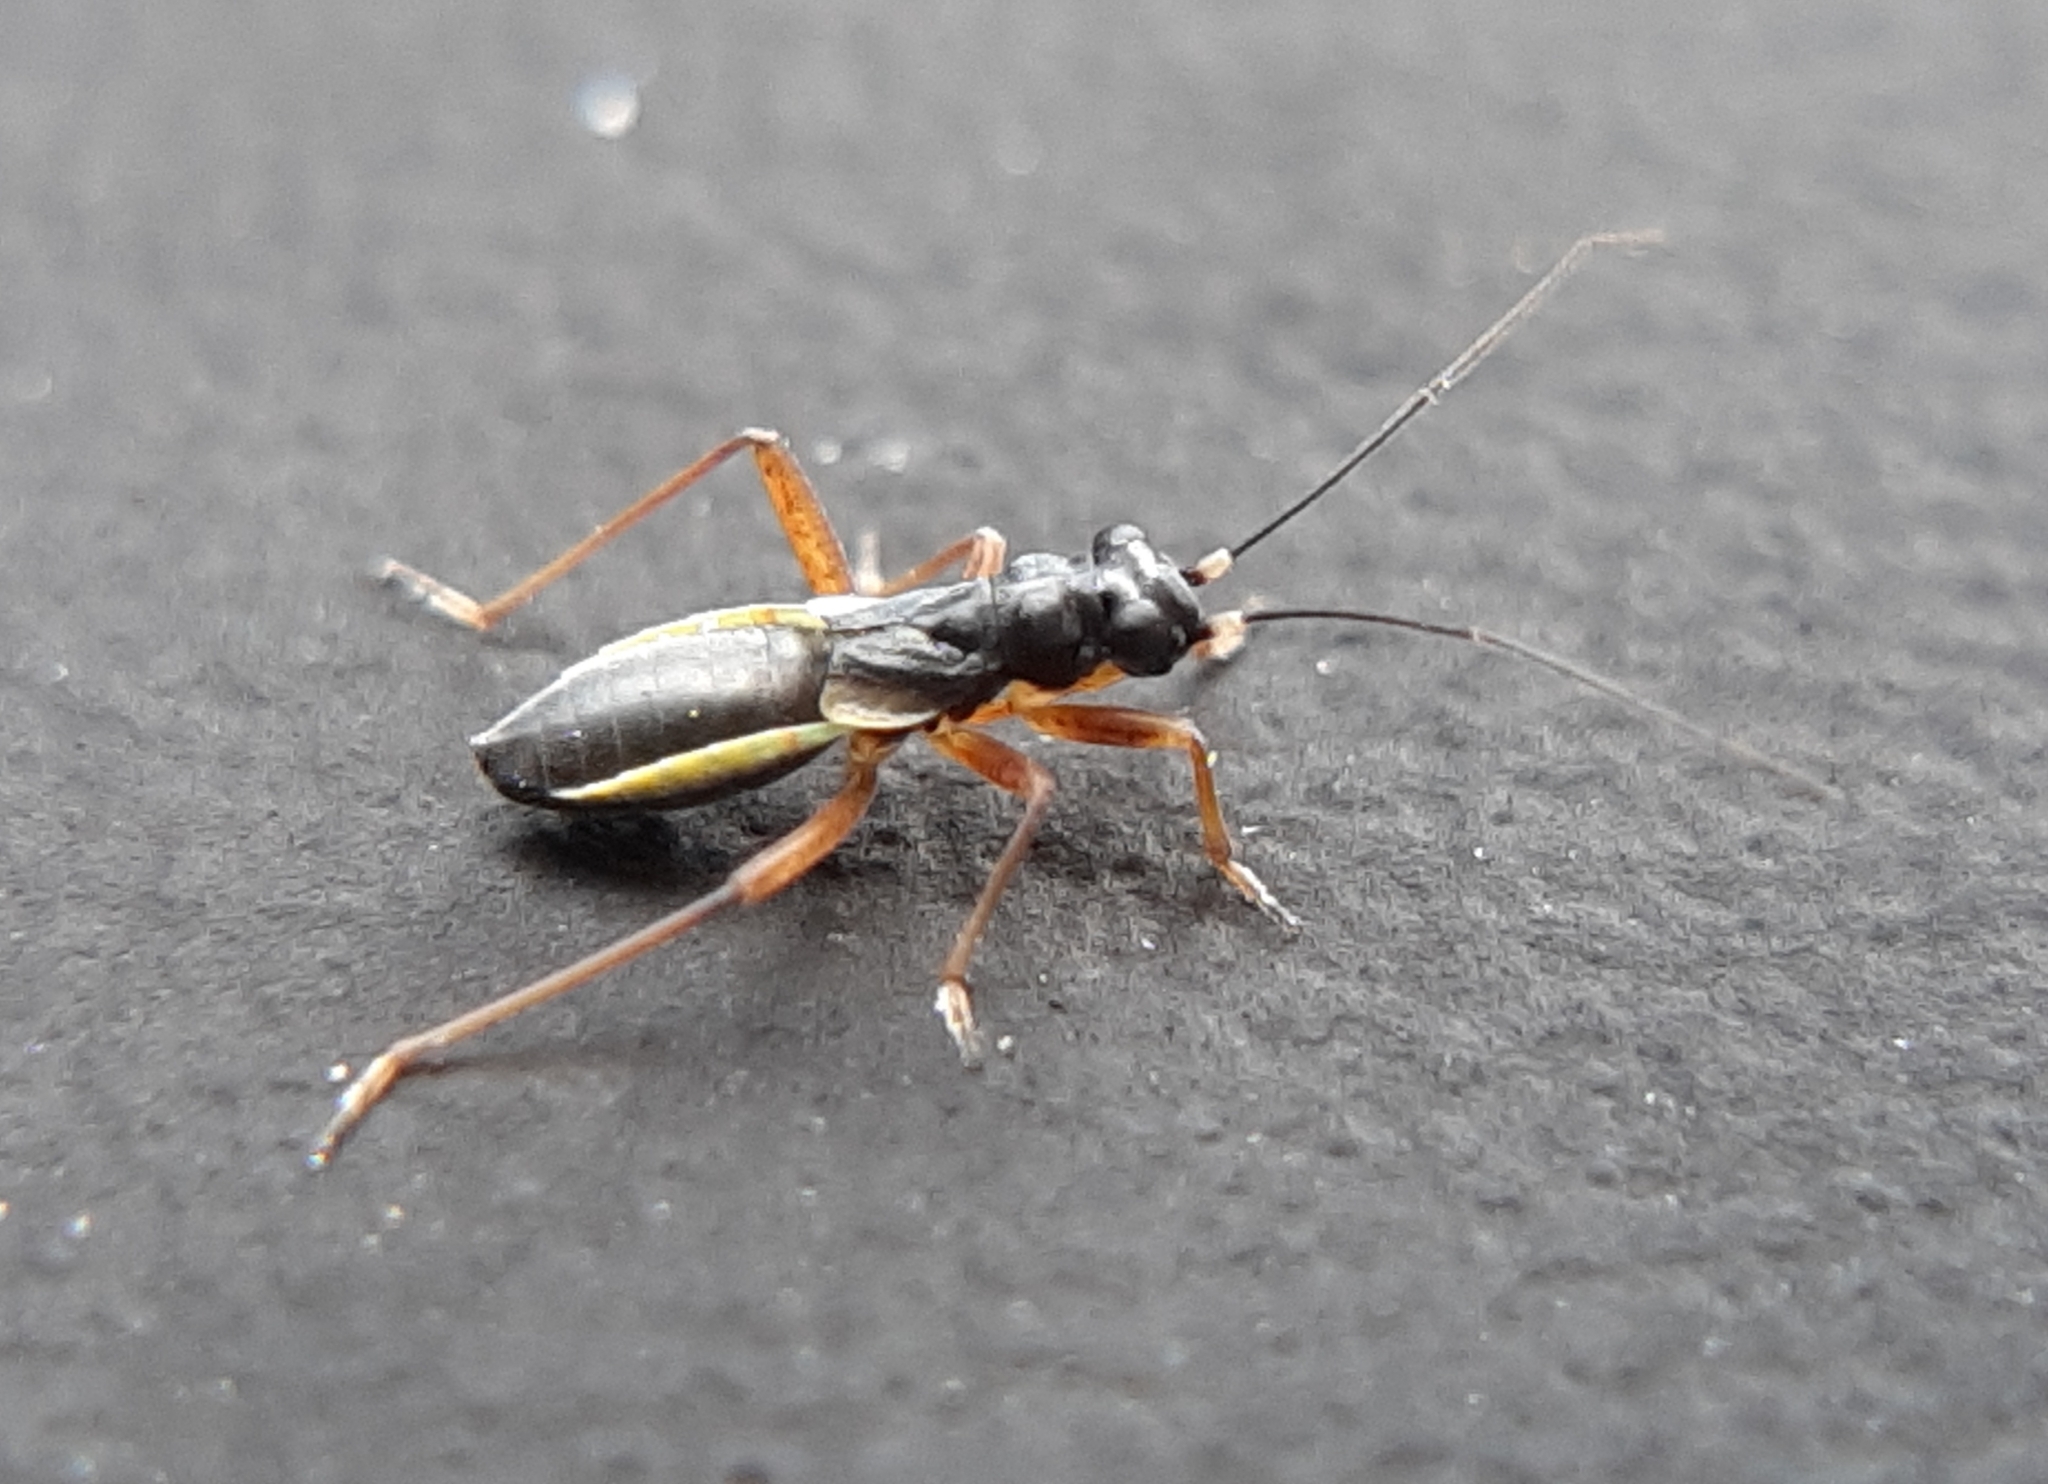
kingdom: Animalia
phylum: Arthropoda
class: Insecta
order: Hemiptera
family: Miridae
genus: Pithanus
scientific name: Pithanus maerkelii
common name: Plant bug
